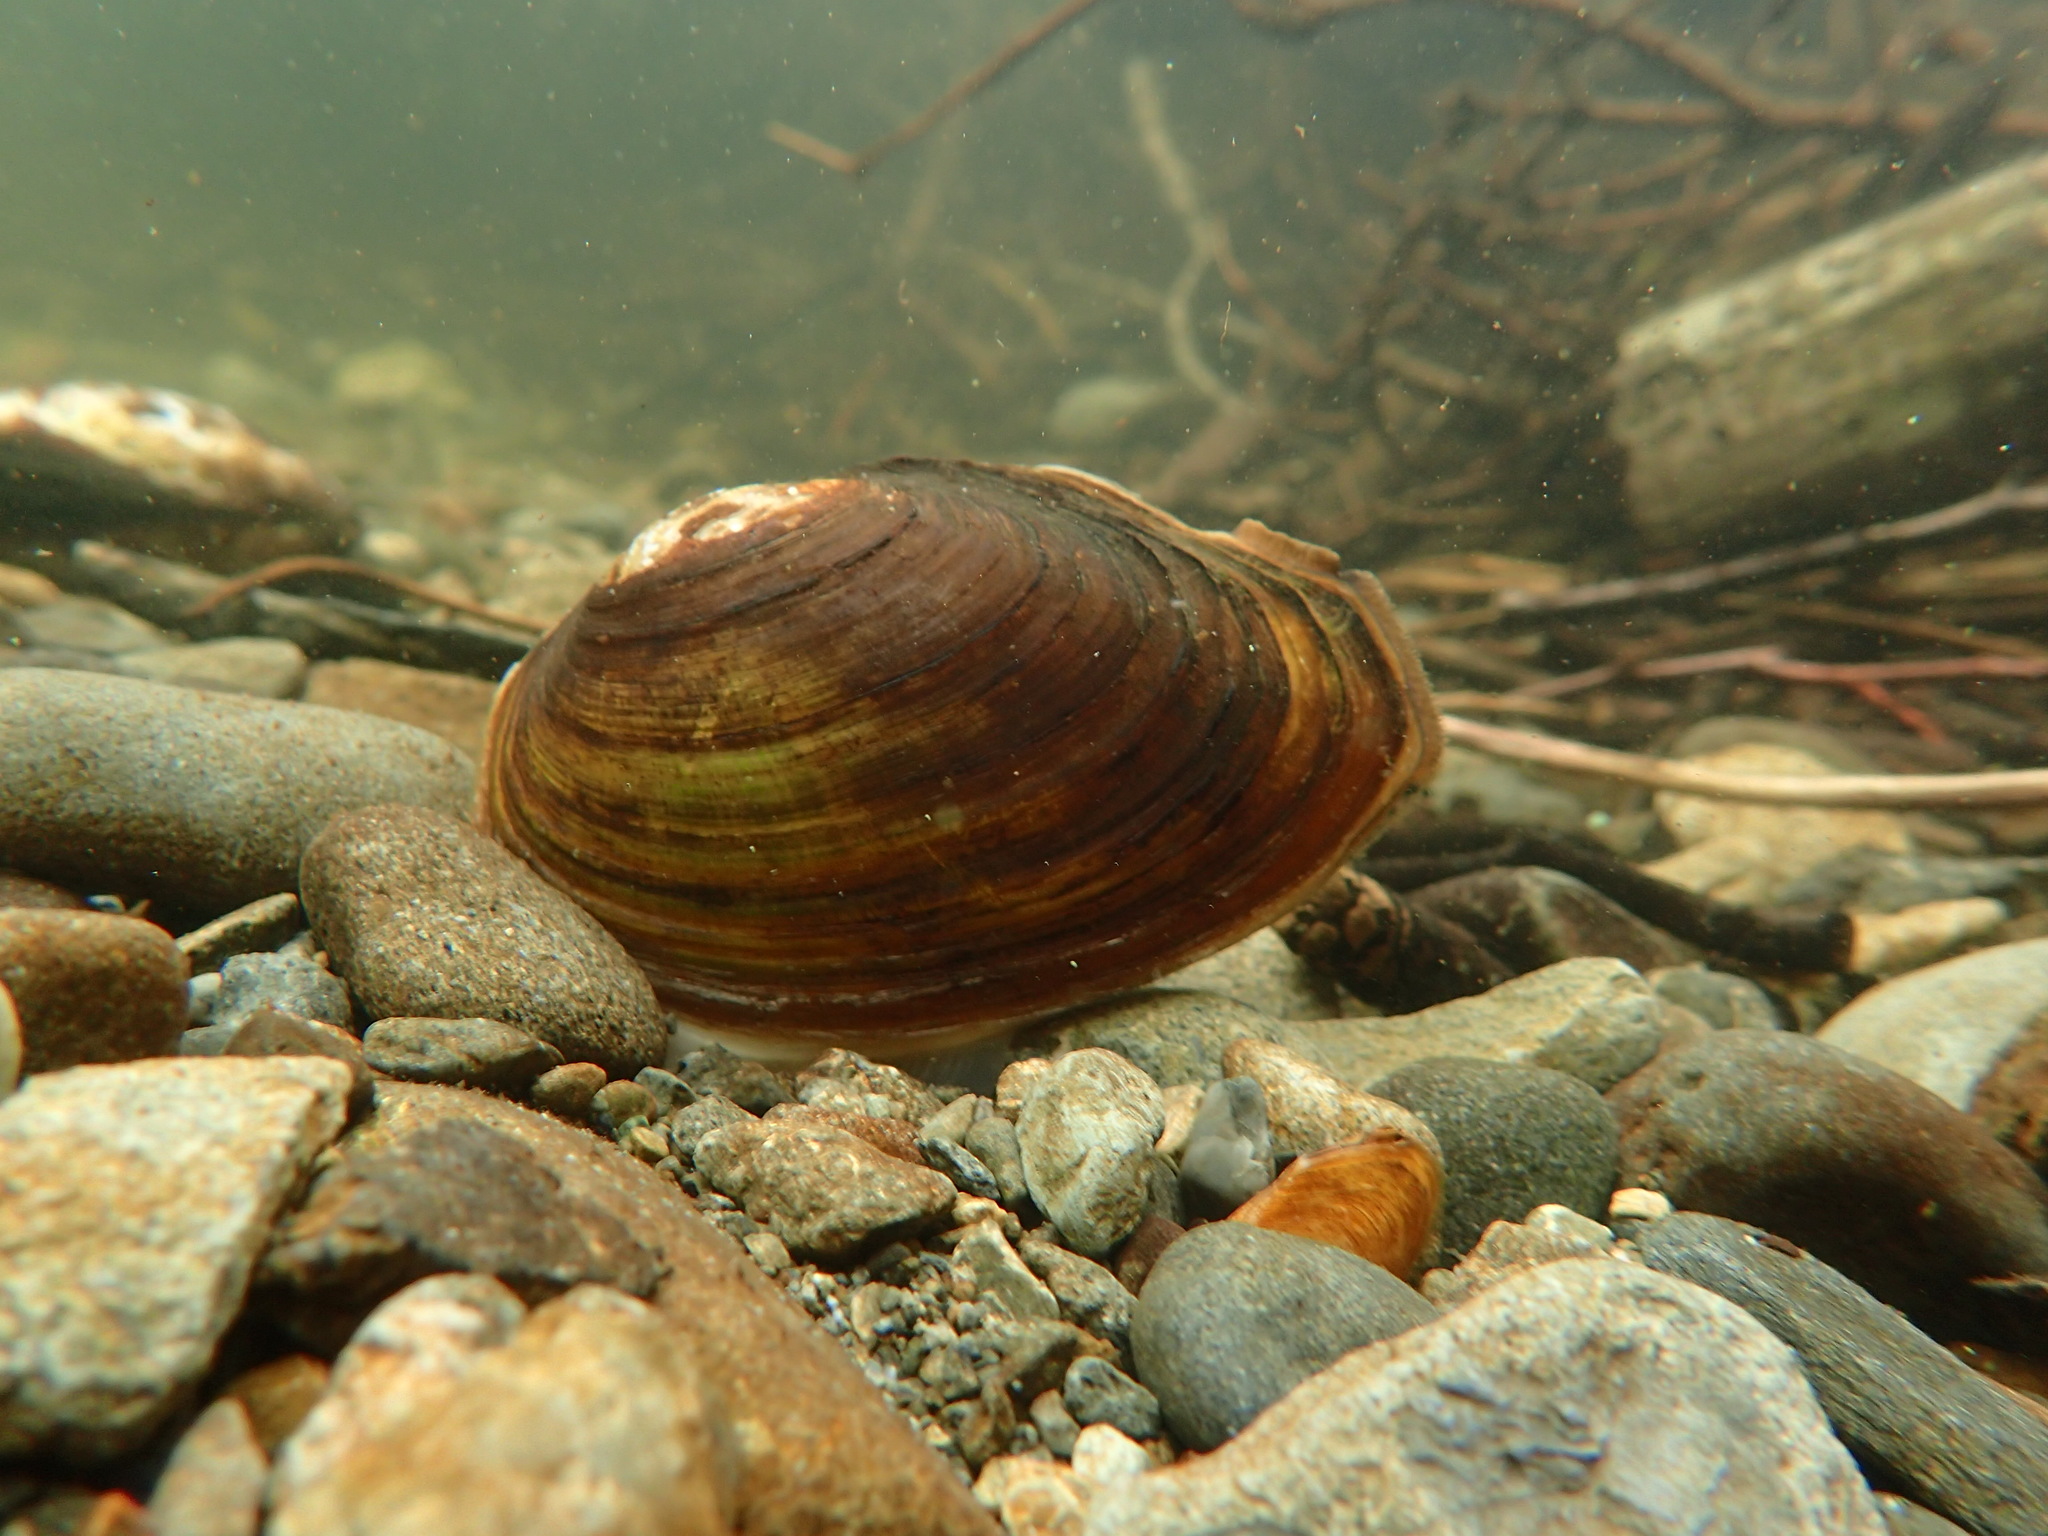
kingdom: Animalia
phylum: Mollusca
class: Bivalvia
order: Unionida
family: Unionidae
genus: Beringiana
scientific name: Beringiana beringiana
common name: Yukon floater
